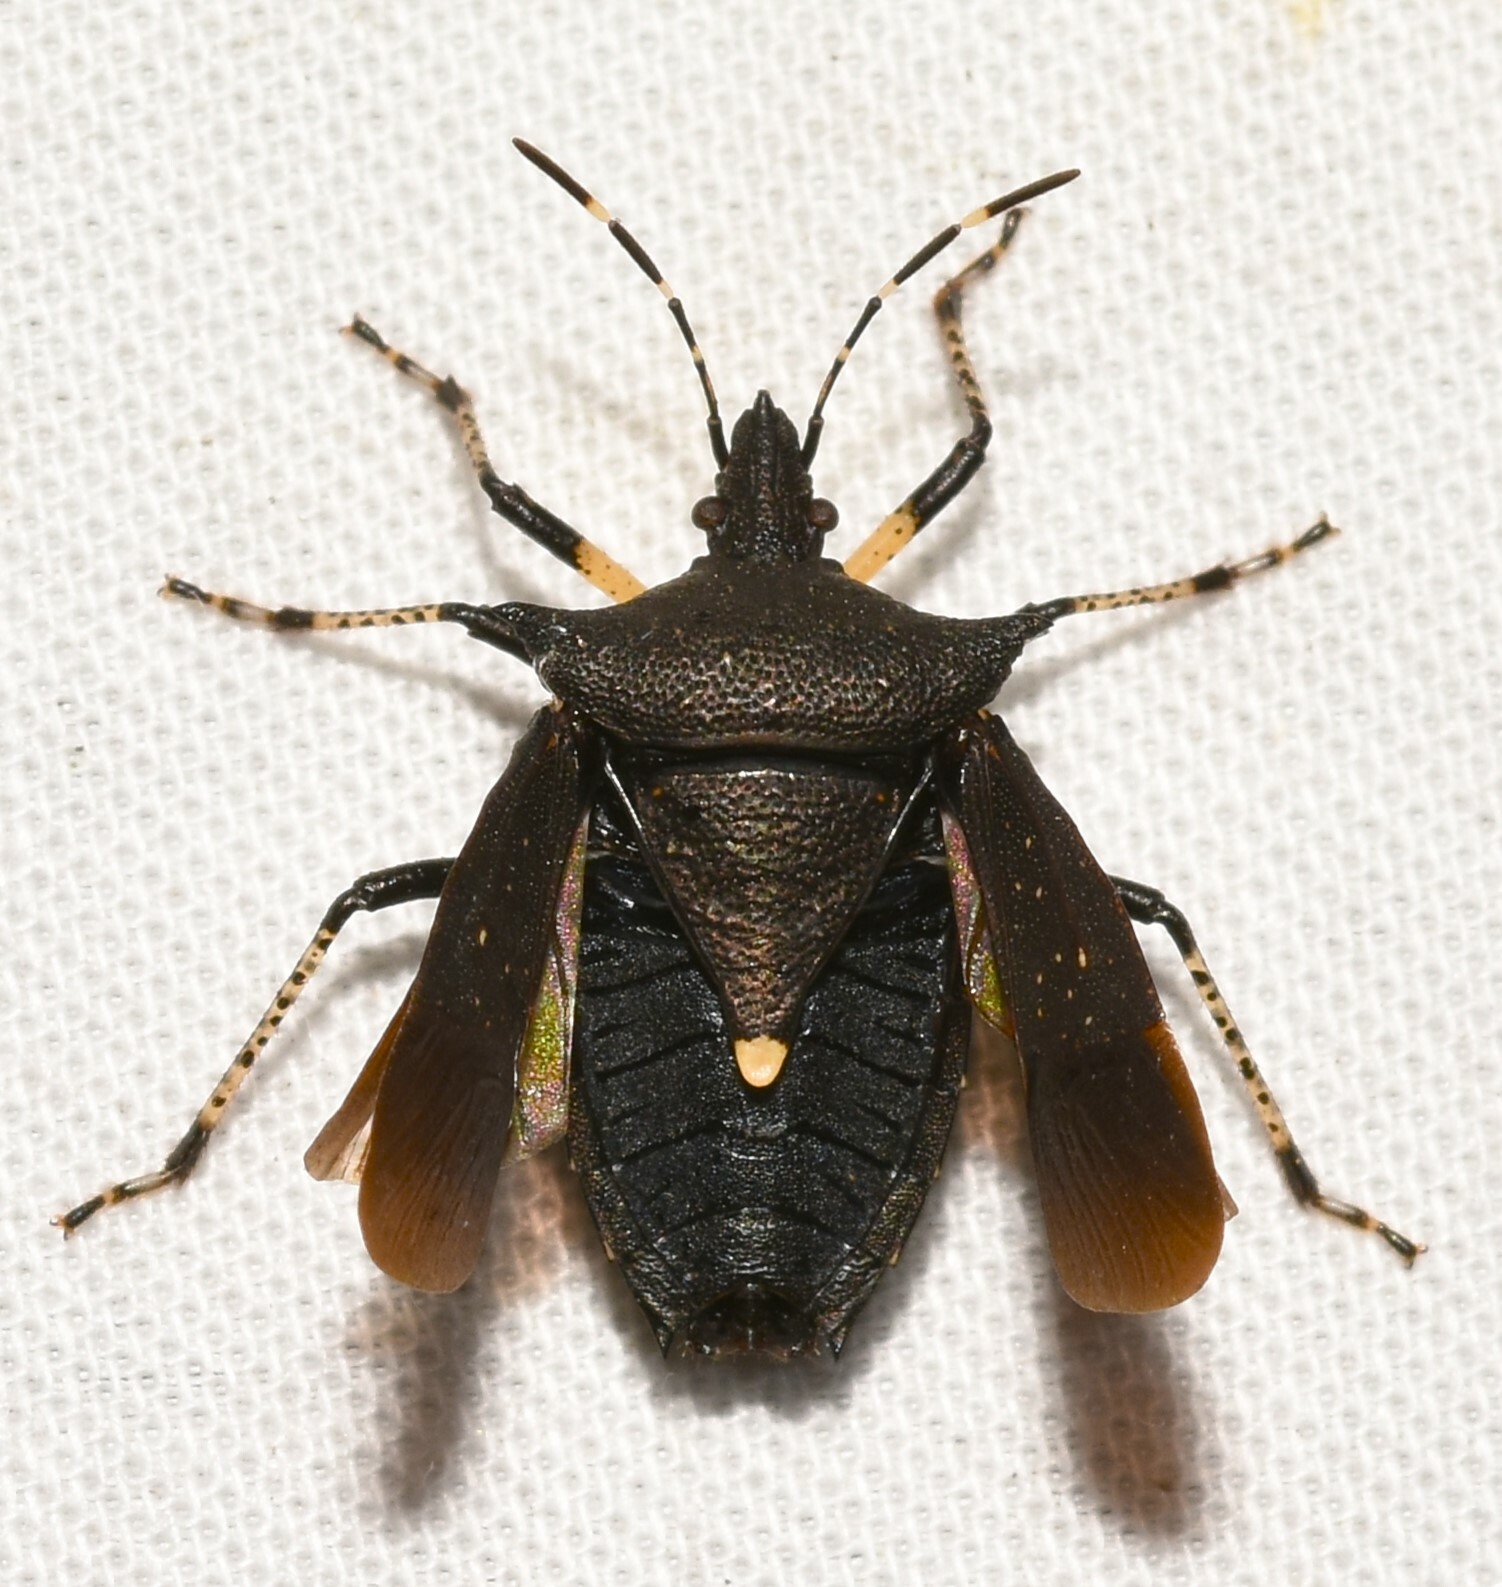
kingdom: Animalia
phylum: Arthropoda
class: Insecta
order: Hemiptera
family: Pentatomidae
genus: Proxys
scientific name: Proxys punctulatus
